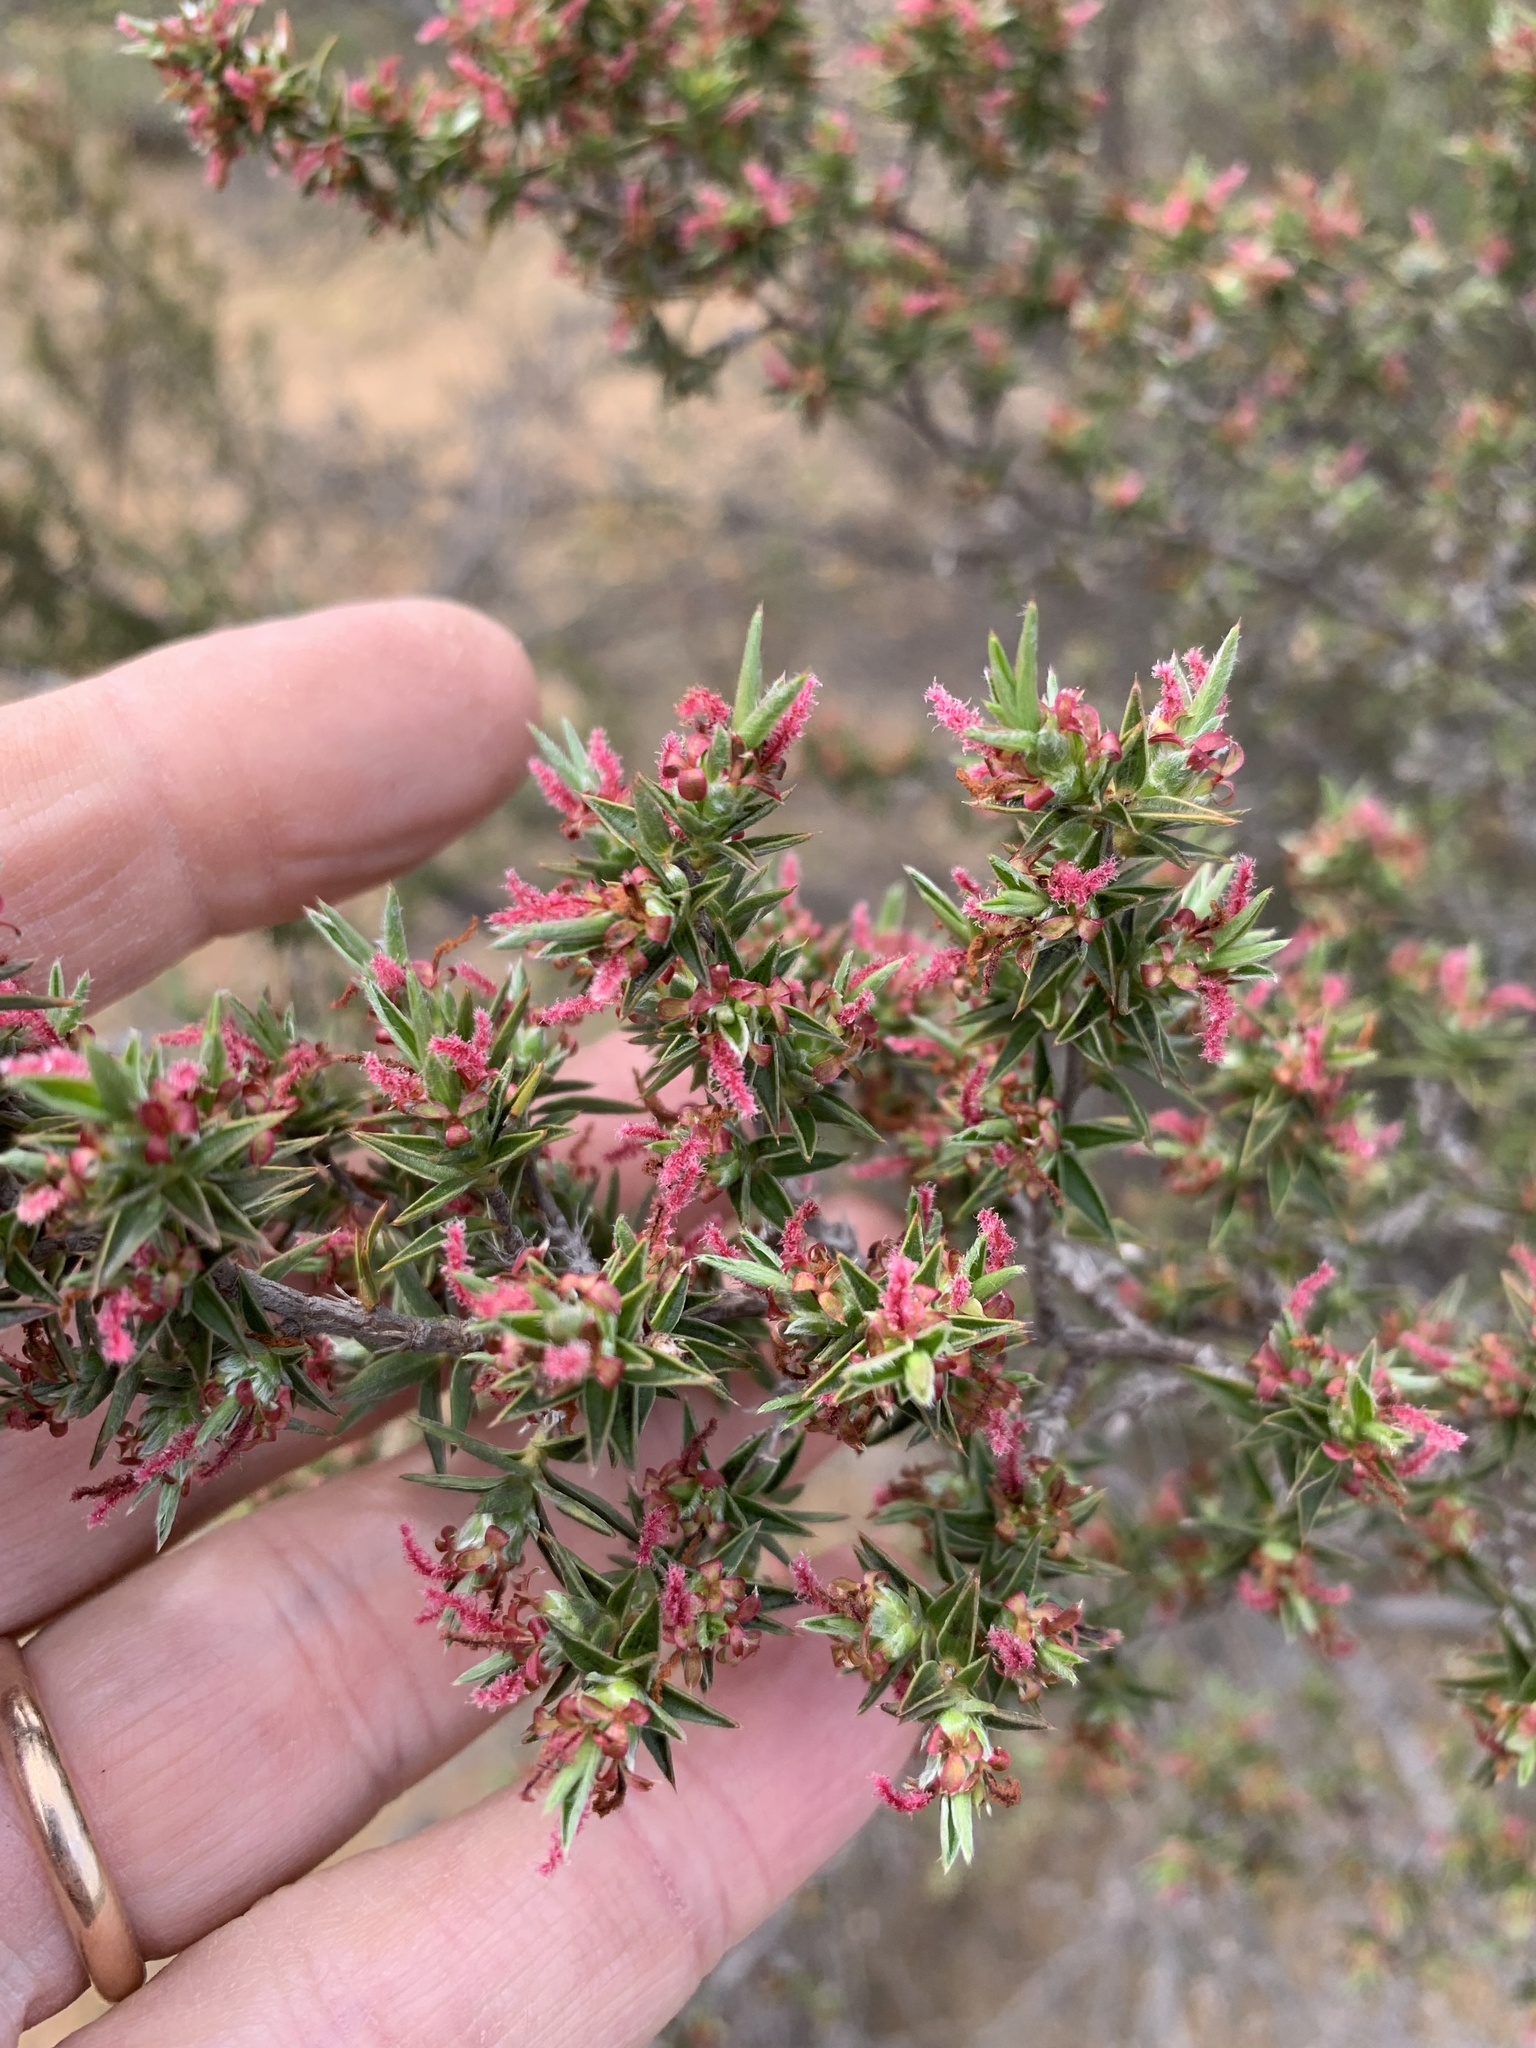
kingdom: Plantae
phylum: Tracheophyta
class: Magnoliopsida
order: Rosales
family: Rosaceae
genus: Cliffortia
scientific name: Cliffortia ruscifolia
